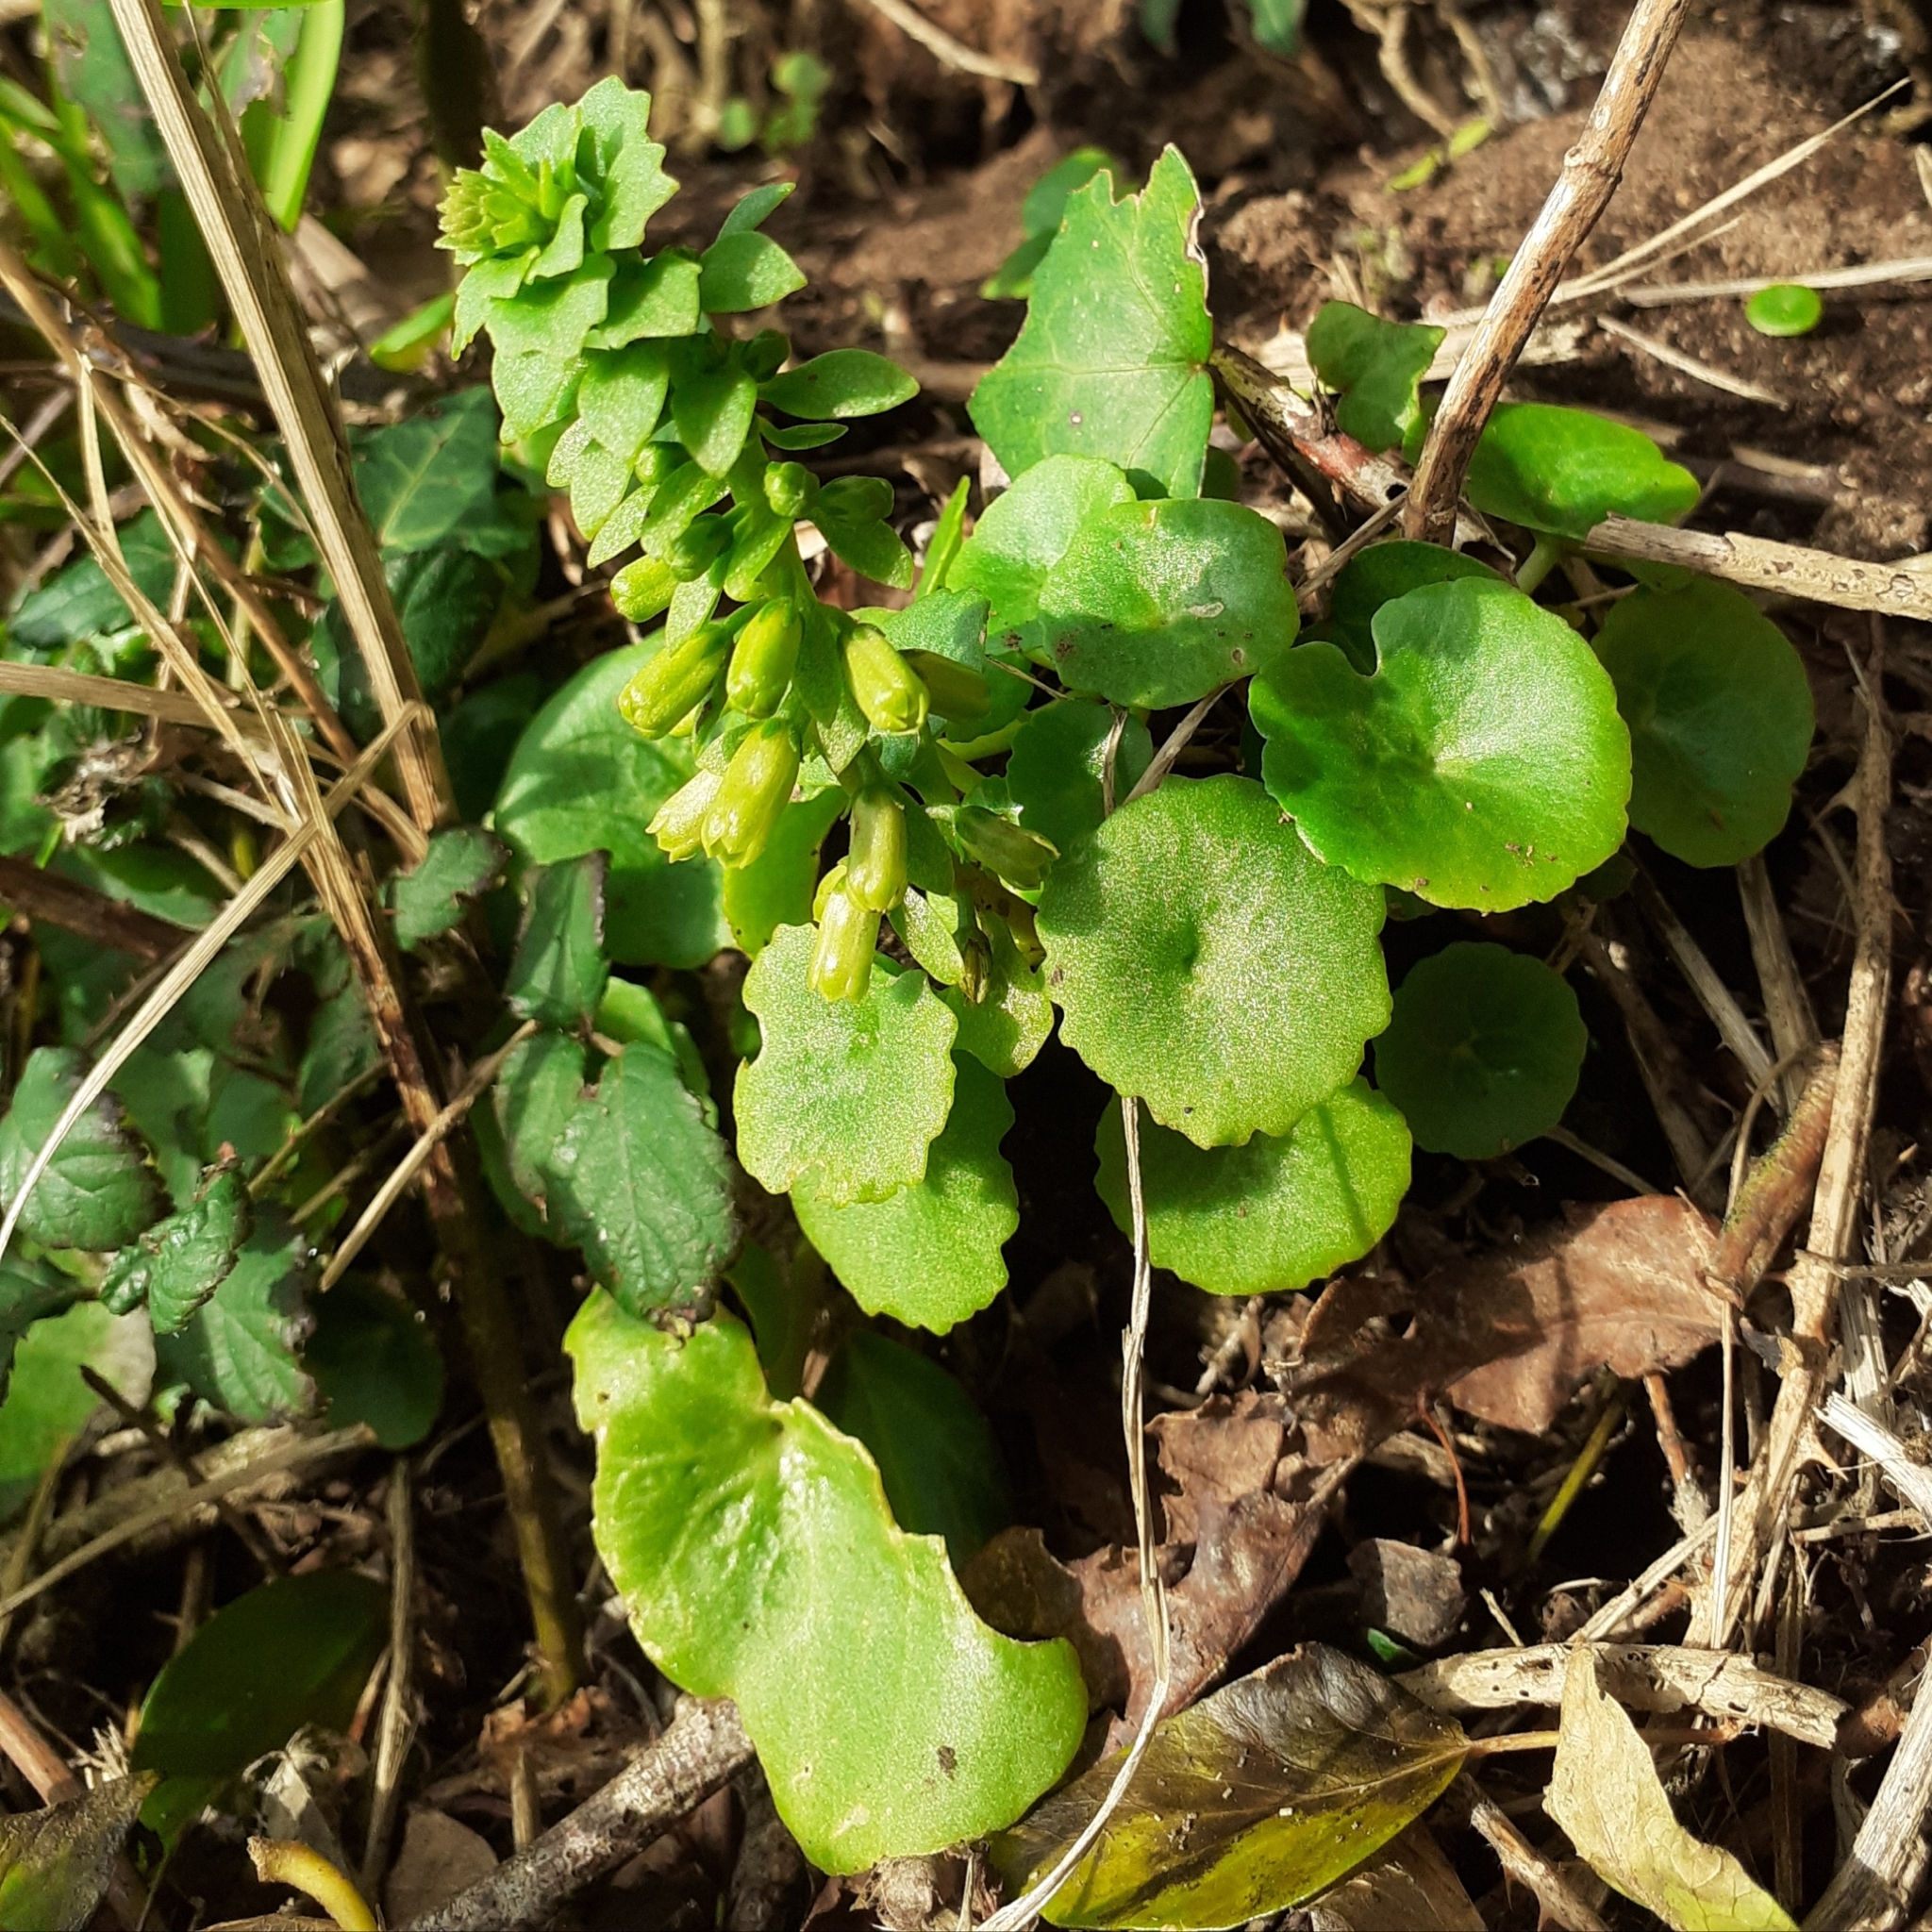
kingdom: Plantae
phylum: Tracheophyta
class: Magnoliopsida
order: Saxifragales
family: Crassulaceae
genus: Umbilicus
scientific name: Umbilicus rupestris
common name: Navelwort
